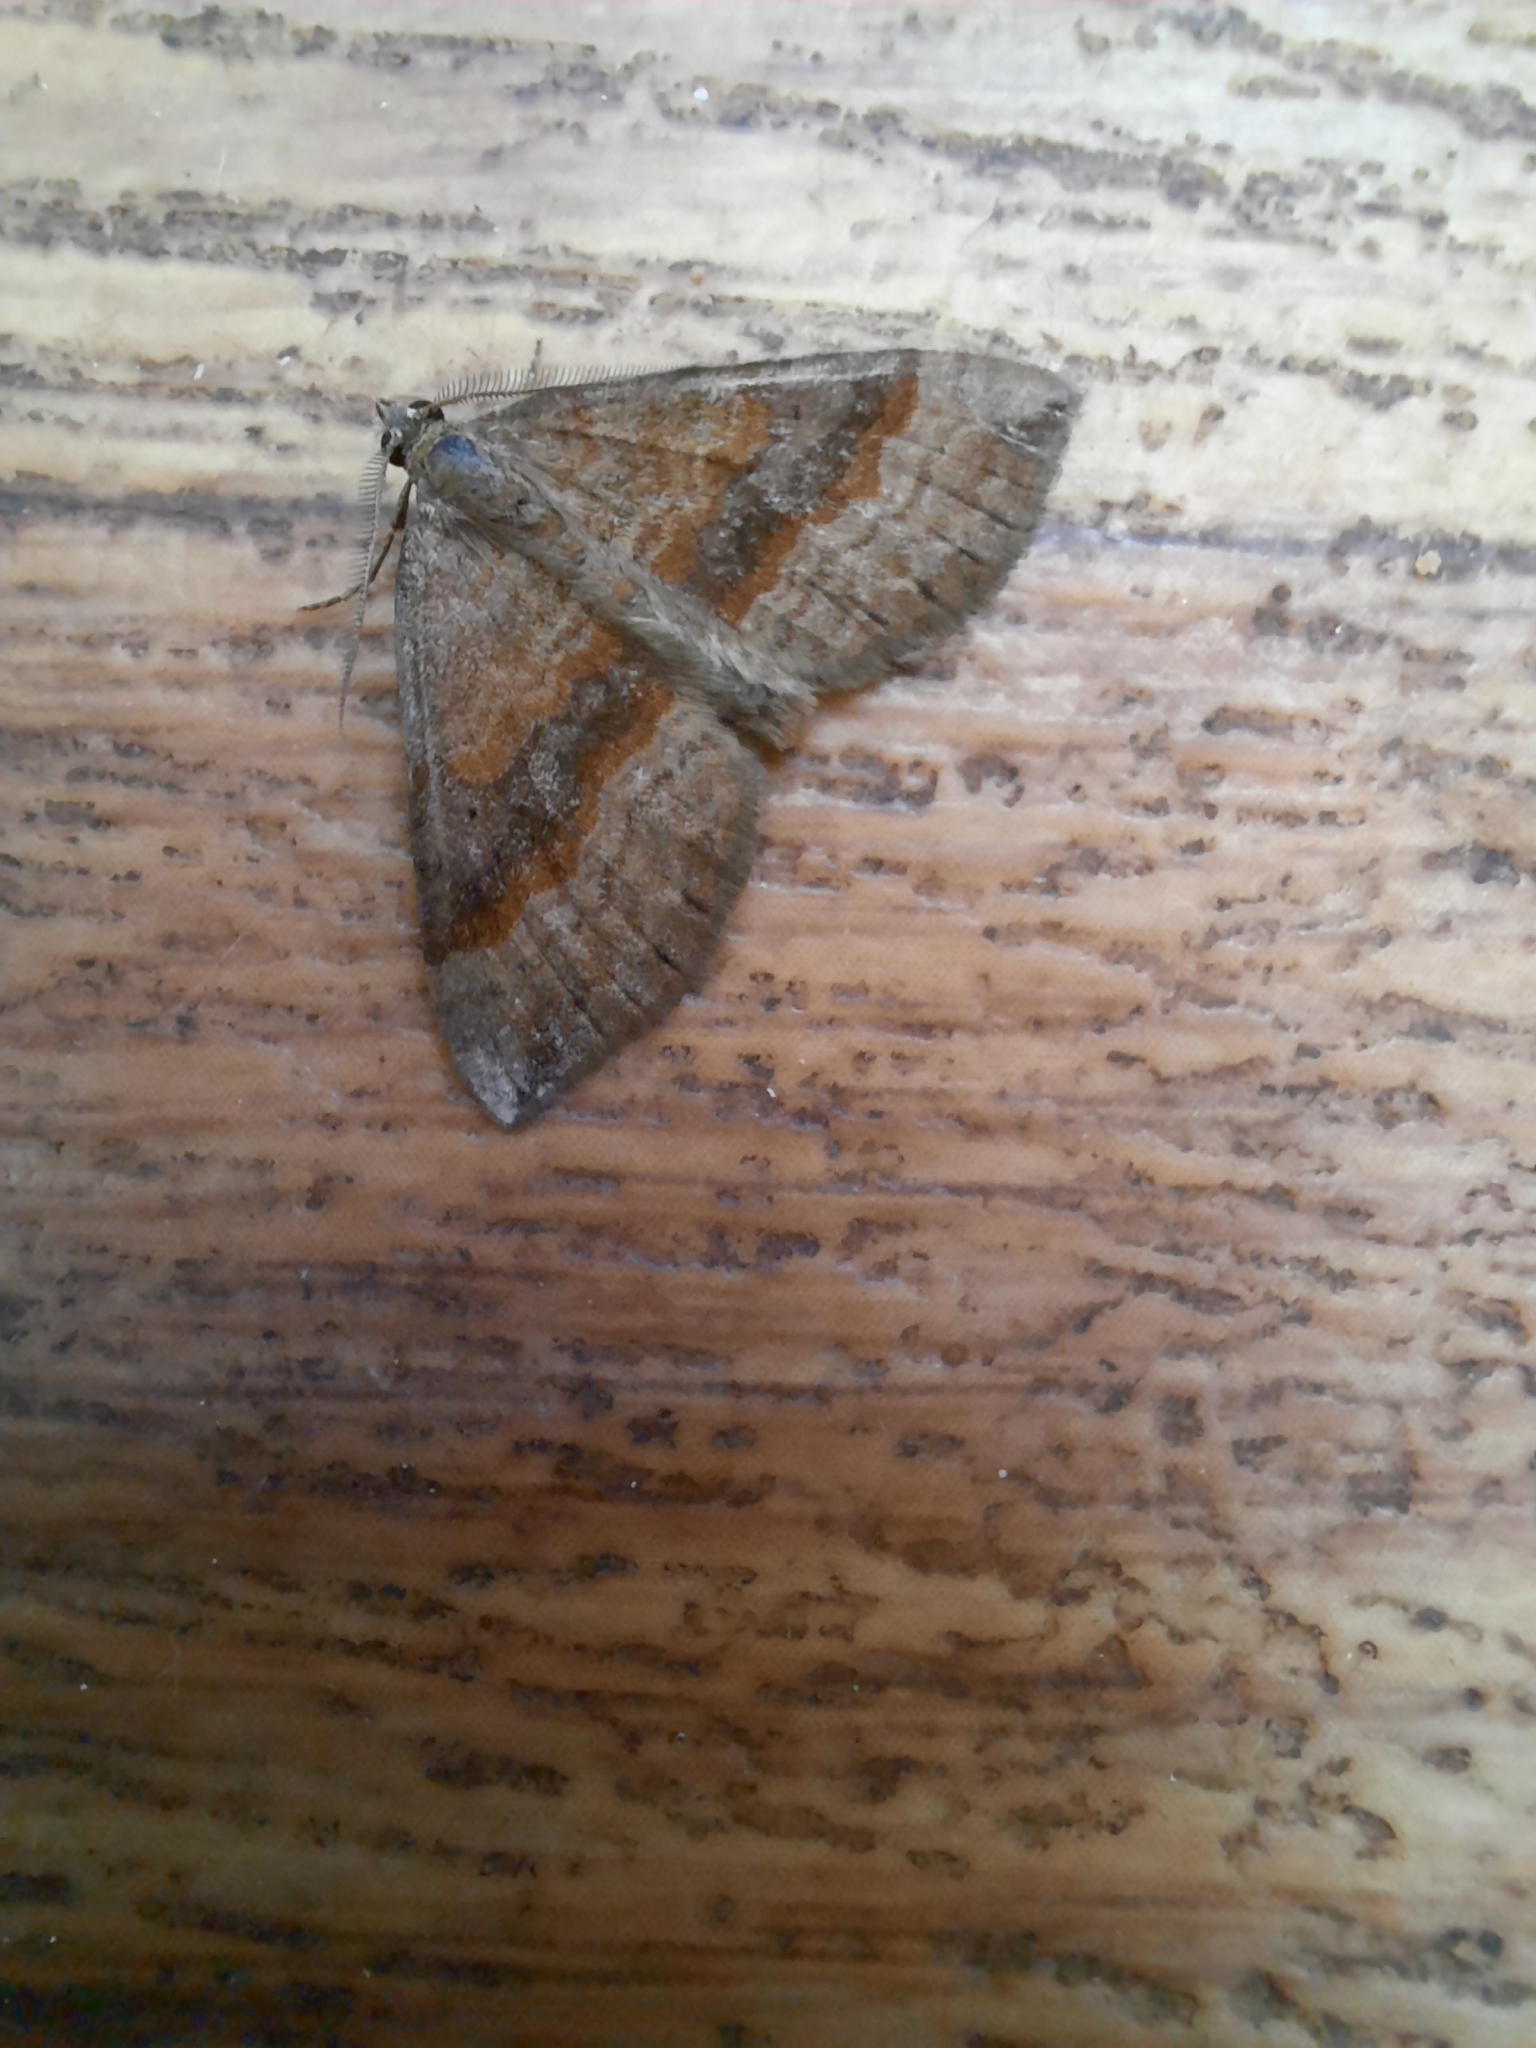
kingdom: Animalia
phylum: Arthropoda
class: Insecta
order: Lepidoptera
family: Geometridae
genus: Scotopteryx
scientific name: Scotopteryx chenopodiata
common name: Shaded broad-bar
